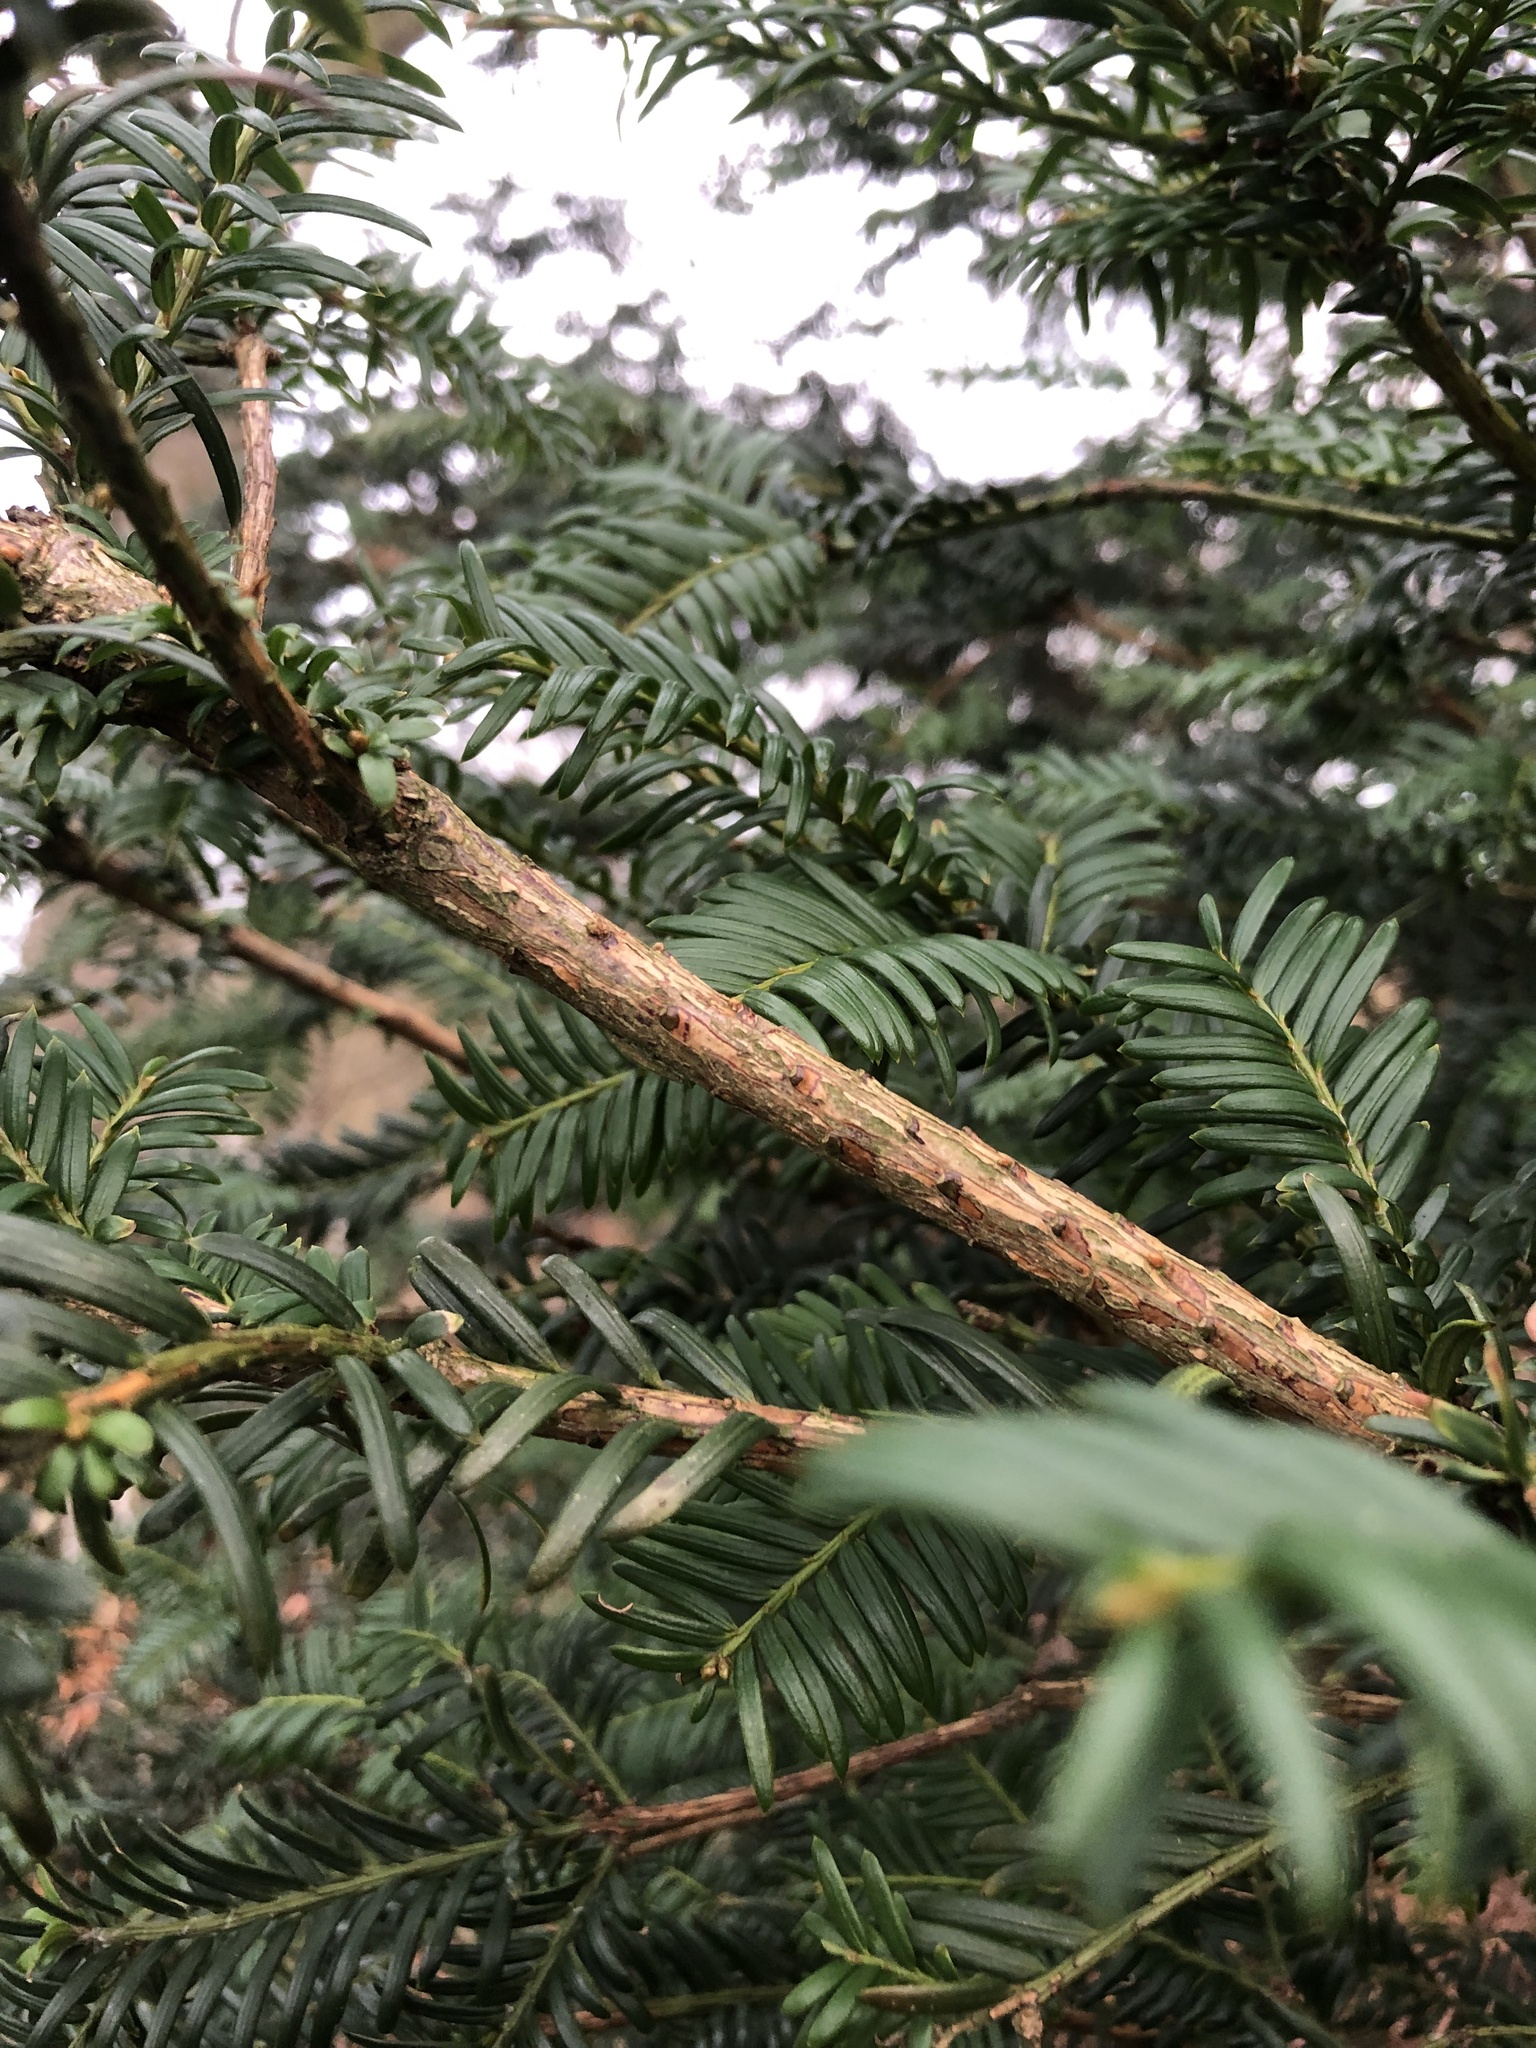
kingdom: Plantae
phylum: Tracheophyta
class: Pinopsida
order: Pinales
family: Taxaceae
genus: Taxus
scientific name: Taxus baccata
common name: Yew
